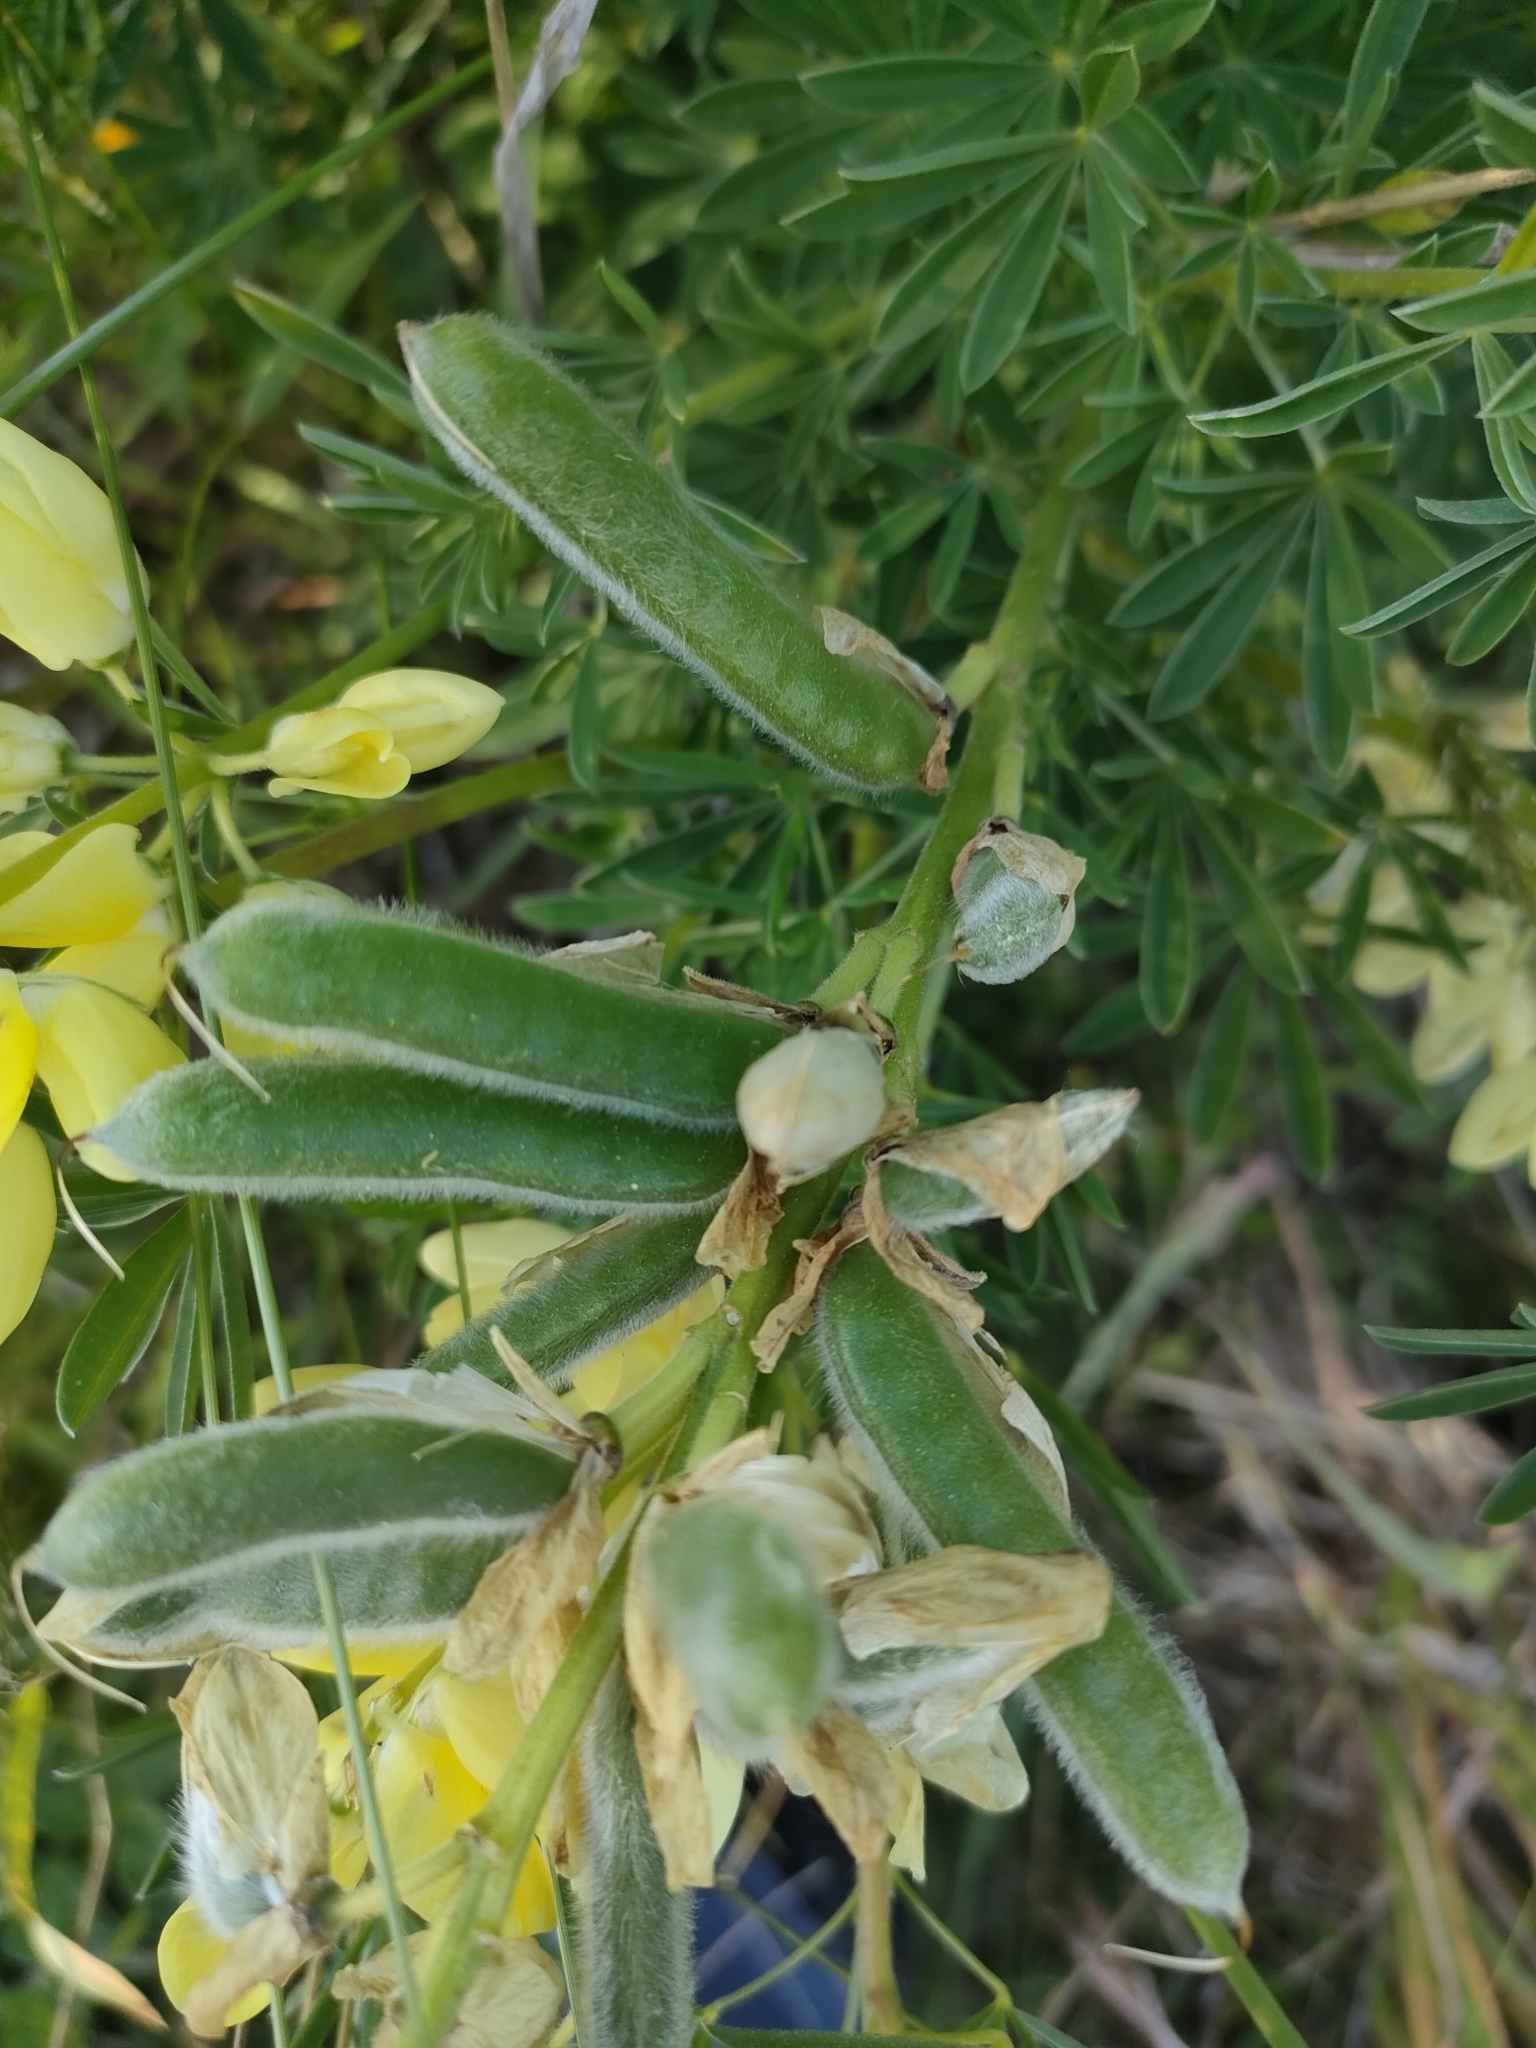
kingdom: Plantae
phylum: Tracheophyta
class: Magnoliopsida
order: Fabales
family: Fabaceae
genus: Lupinus
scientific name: Lupinus arboreus
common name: Yellow bush lupine
